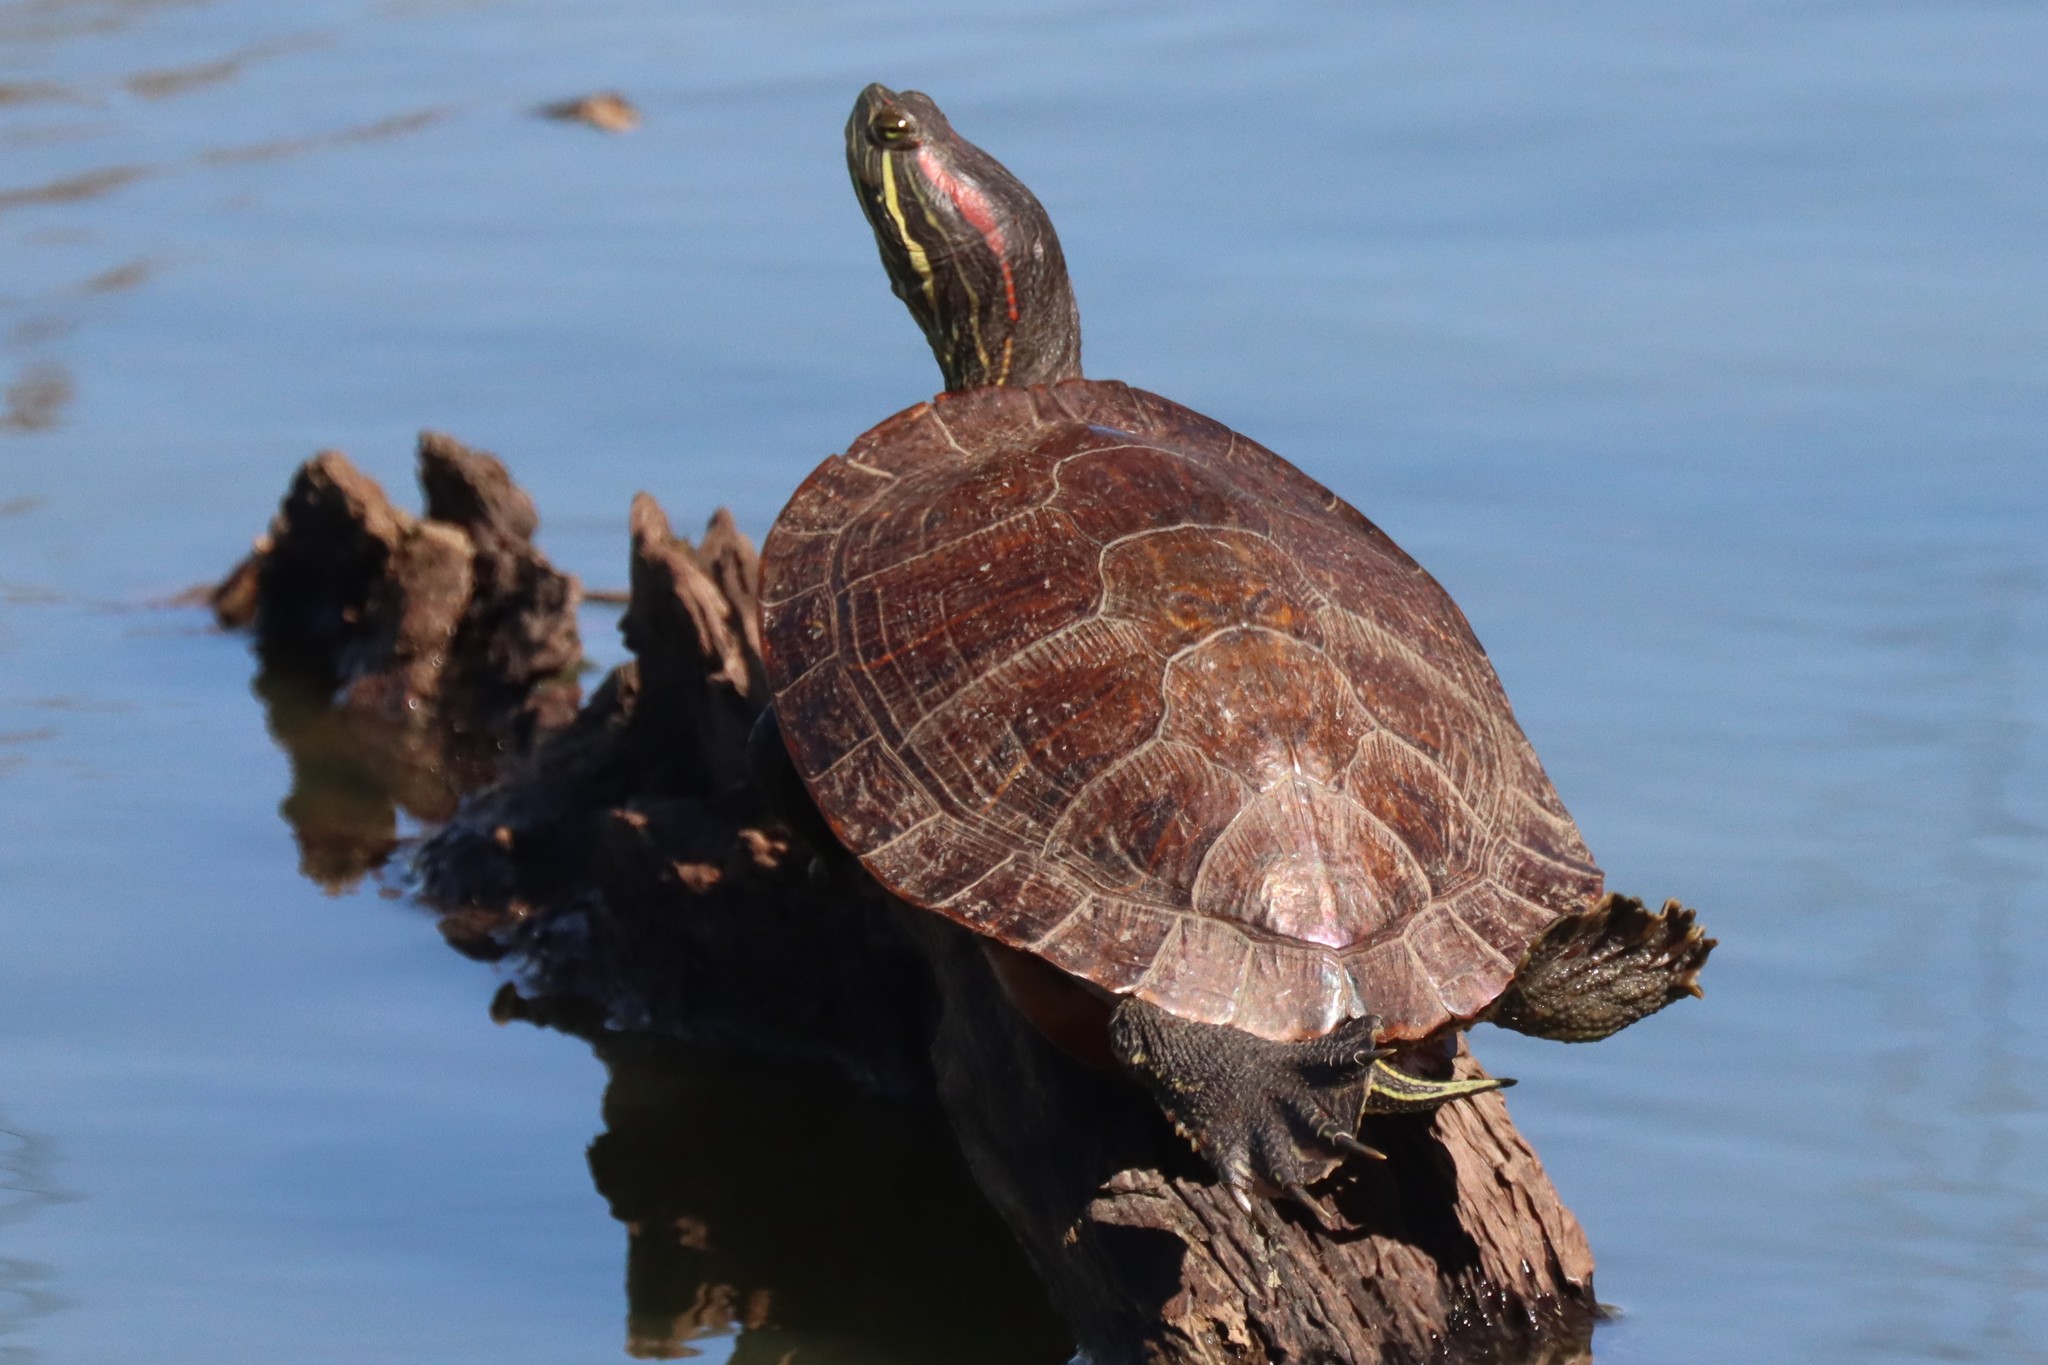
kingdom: Animalia
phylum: Chordata
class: Testudines
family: Emydidae
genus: Trachemys
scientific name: Trachemys scripta
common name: Slider
